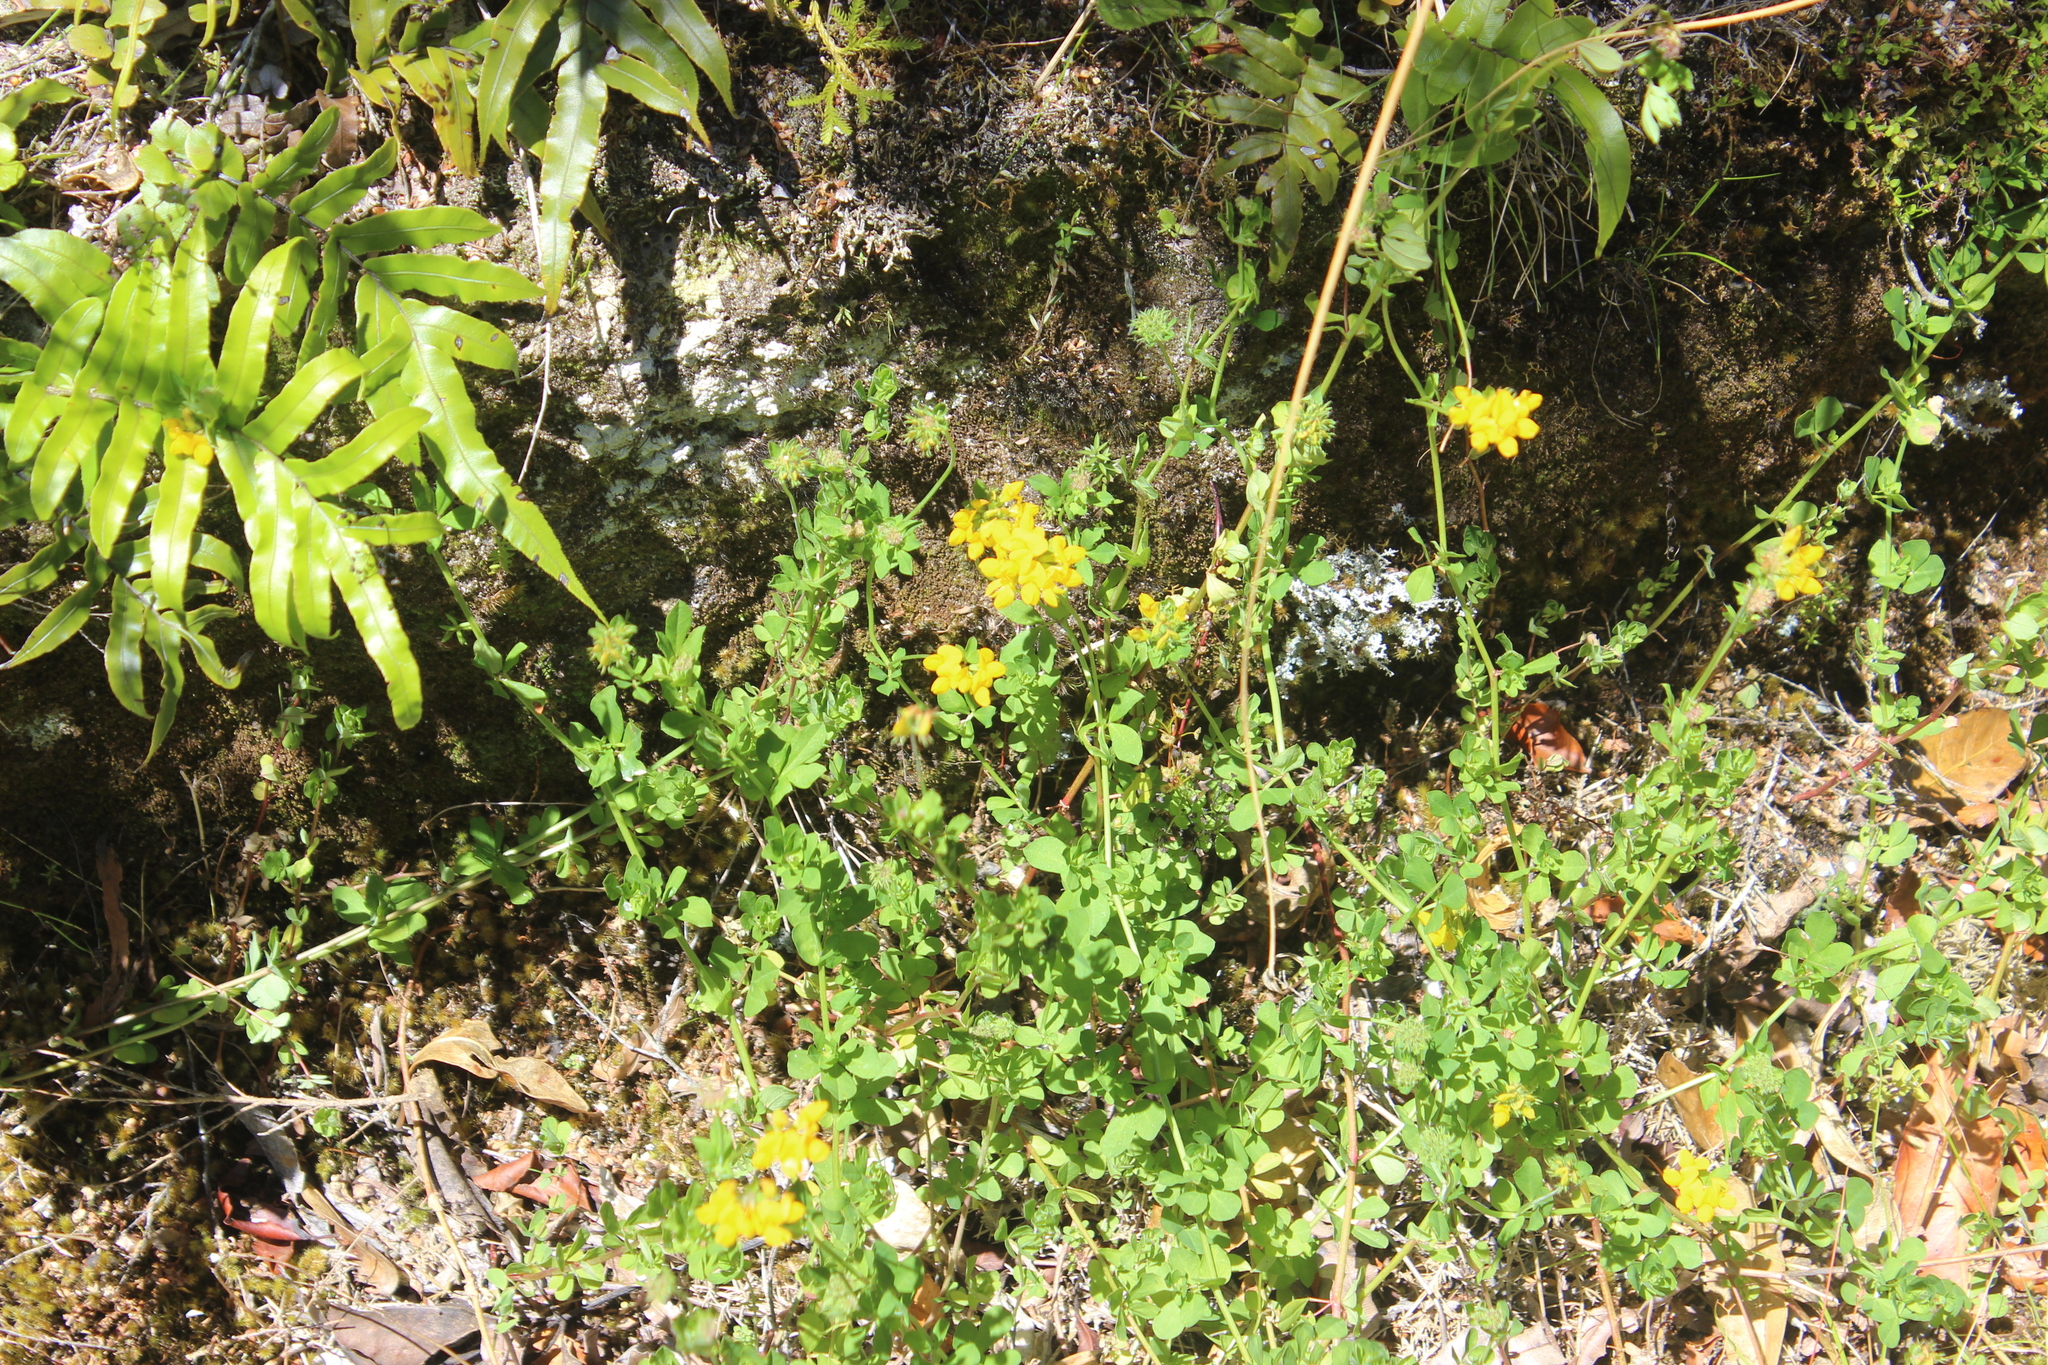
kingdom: Plantae
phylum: Tracheophyta
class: Magnoliopsida
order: Fabales
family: Fabaceae
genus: Lotus
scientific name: Lotus pedunculatus
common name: Greater birdsfoot-trefoil
